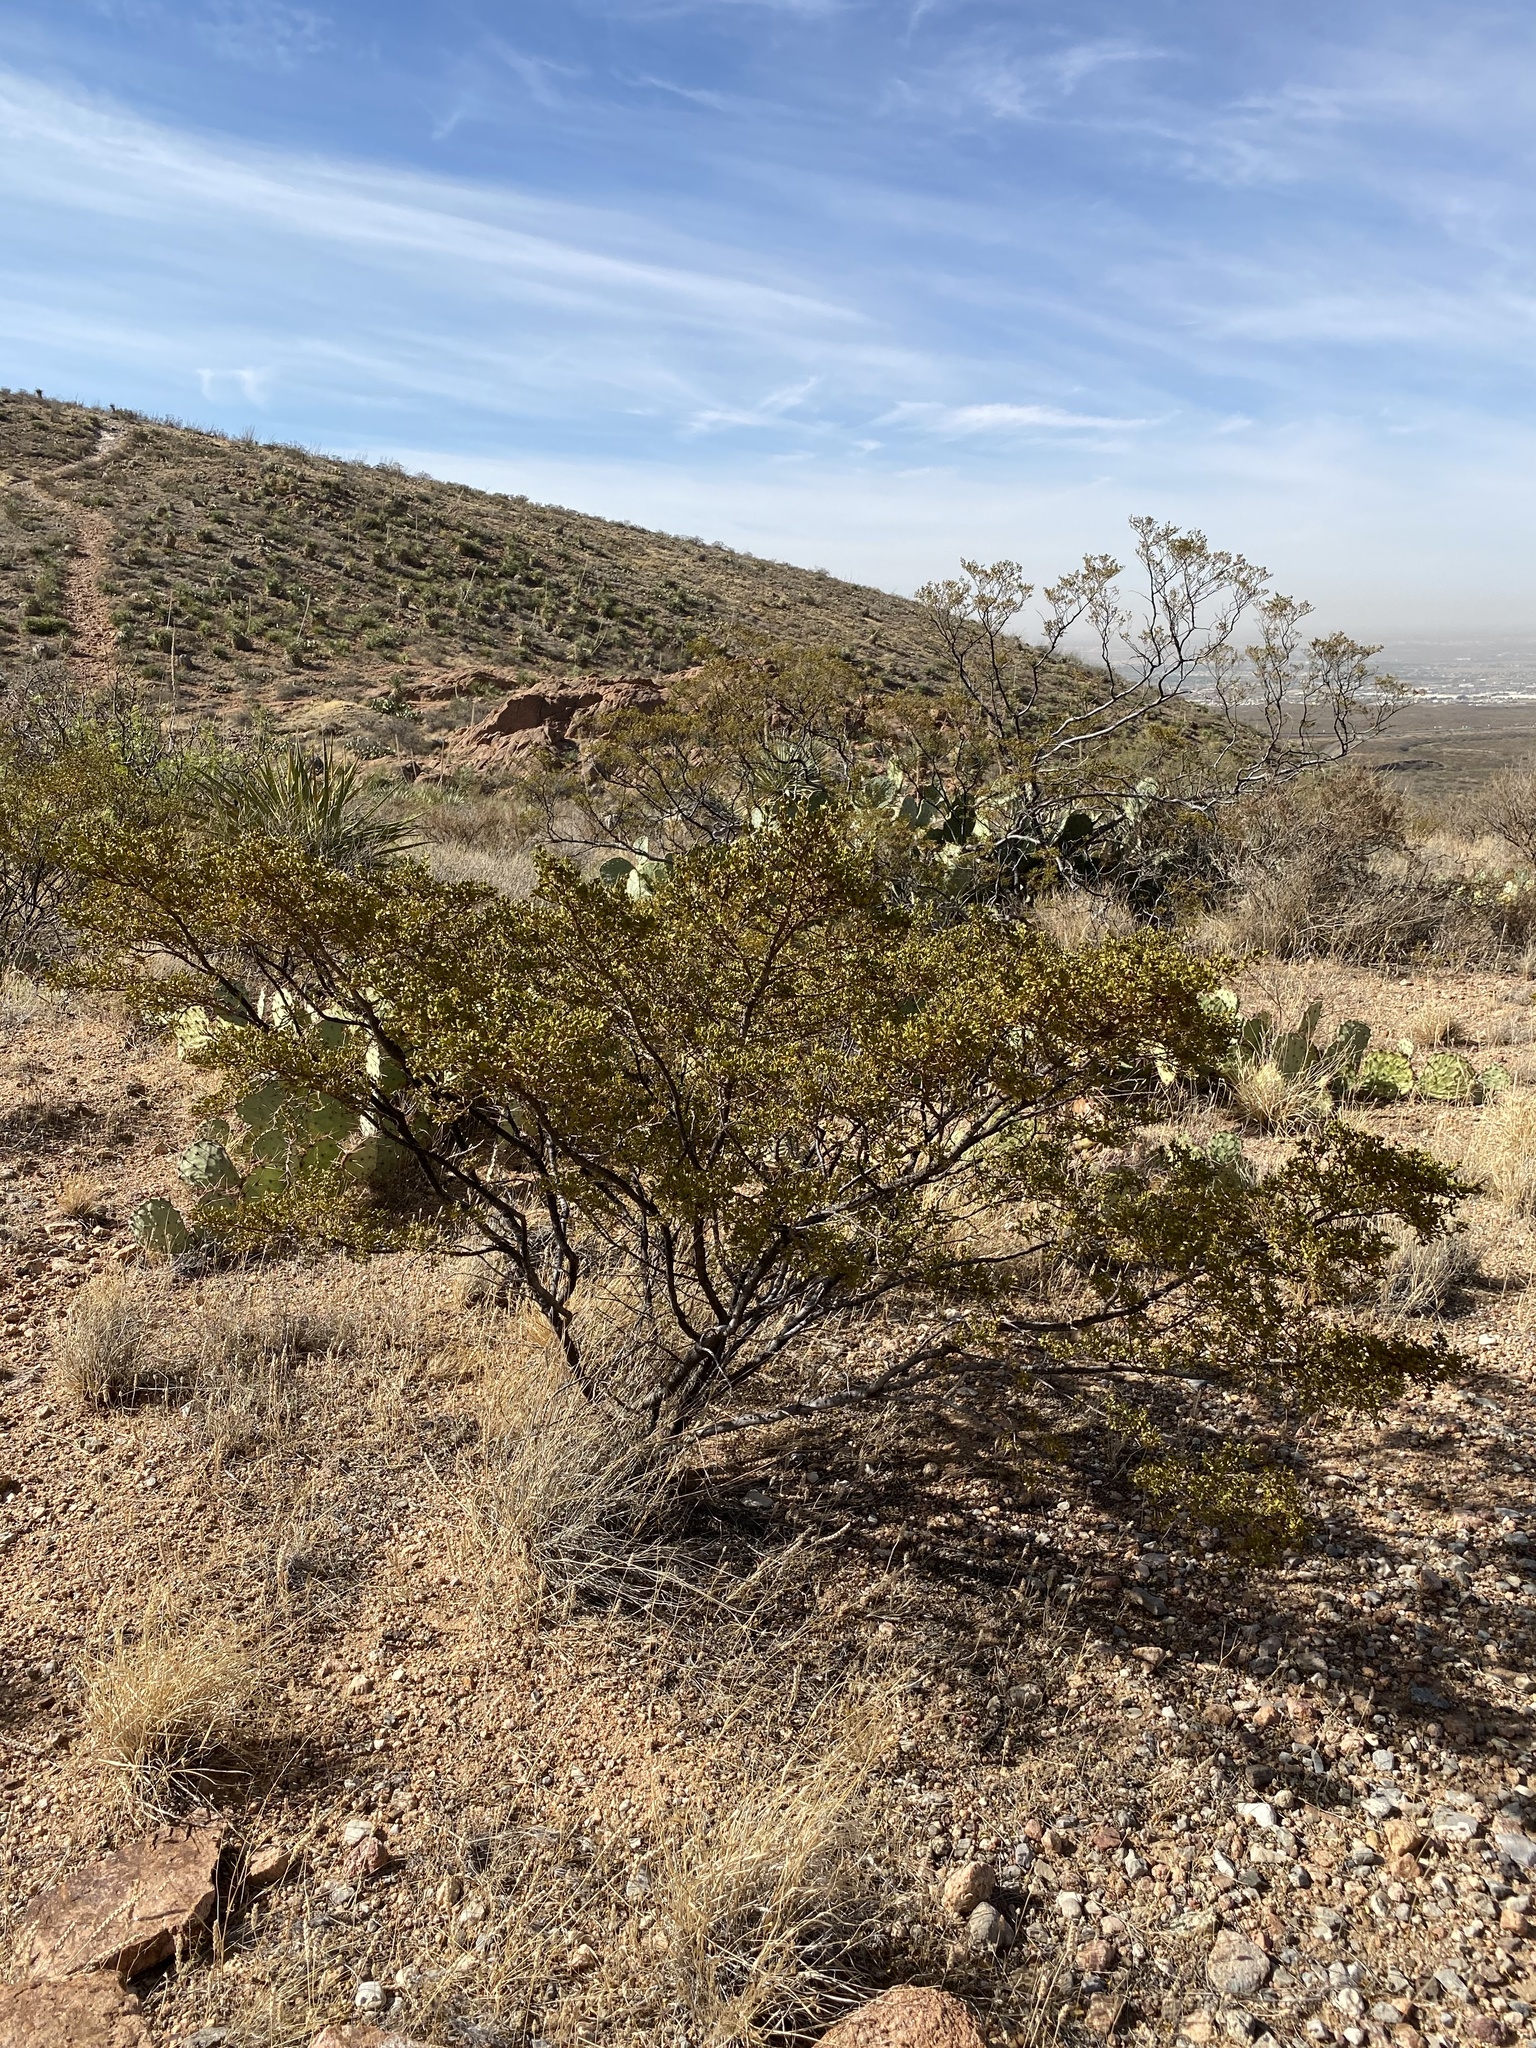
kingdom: Plantae
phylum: Tracheophyta
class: Magnoliopsida
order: Zygophyllales
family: Zygophyllaceae
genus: Larrea
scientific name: Larrea tridentata
